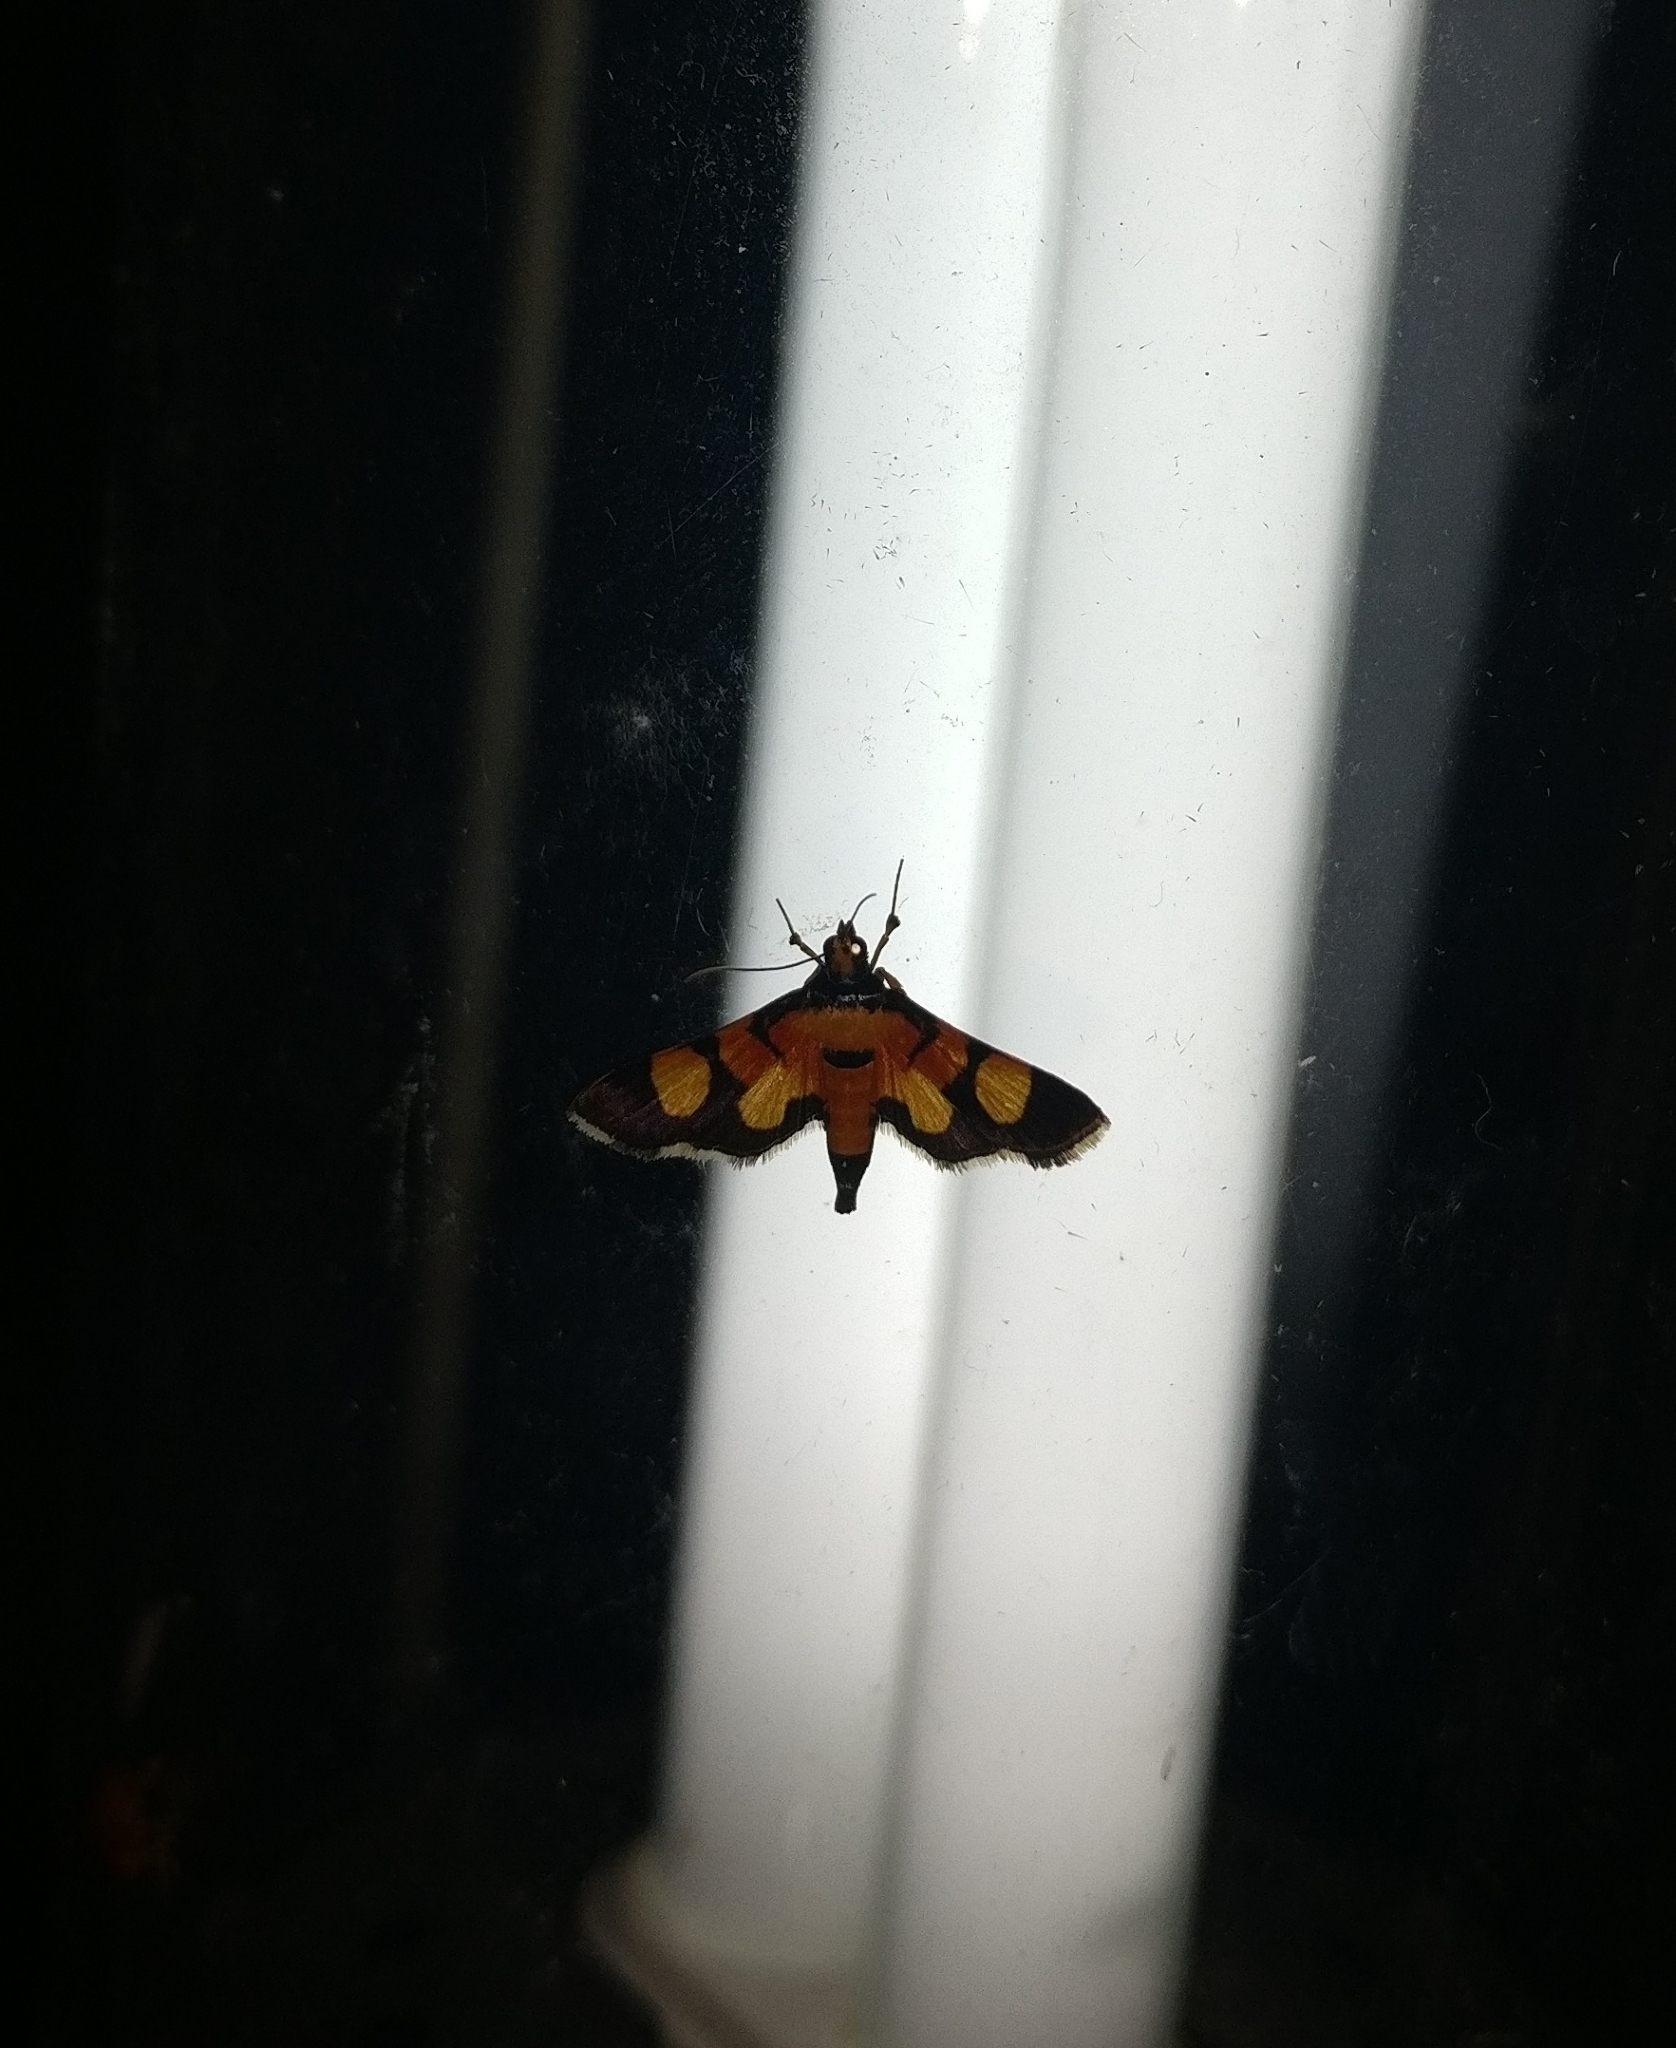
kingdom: Animalia
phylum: Arthropoda
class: Insecta
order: Lepidoptera
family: Crambidae
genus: Aethaloessa
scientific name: Aethaloessa calidalis
